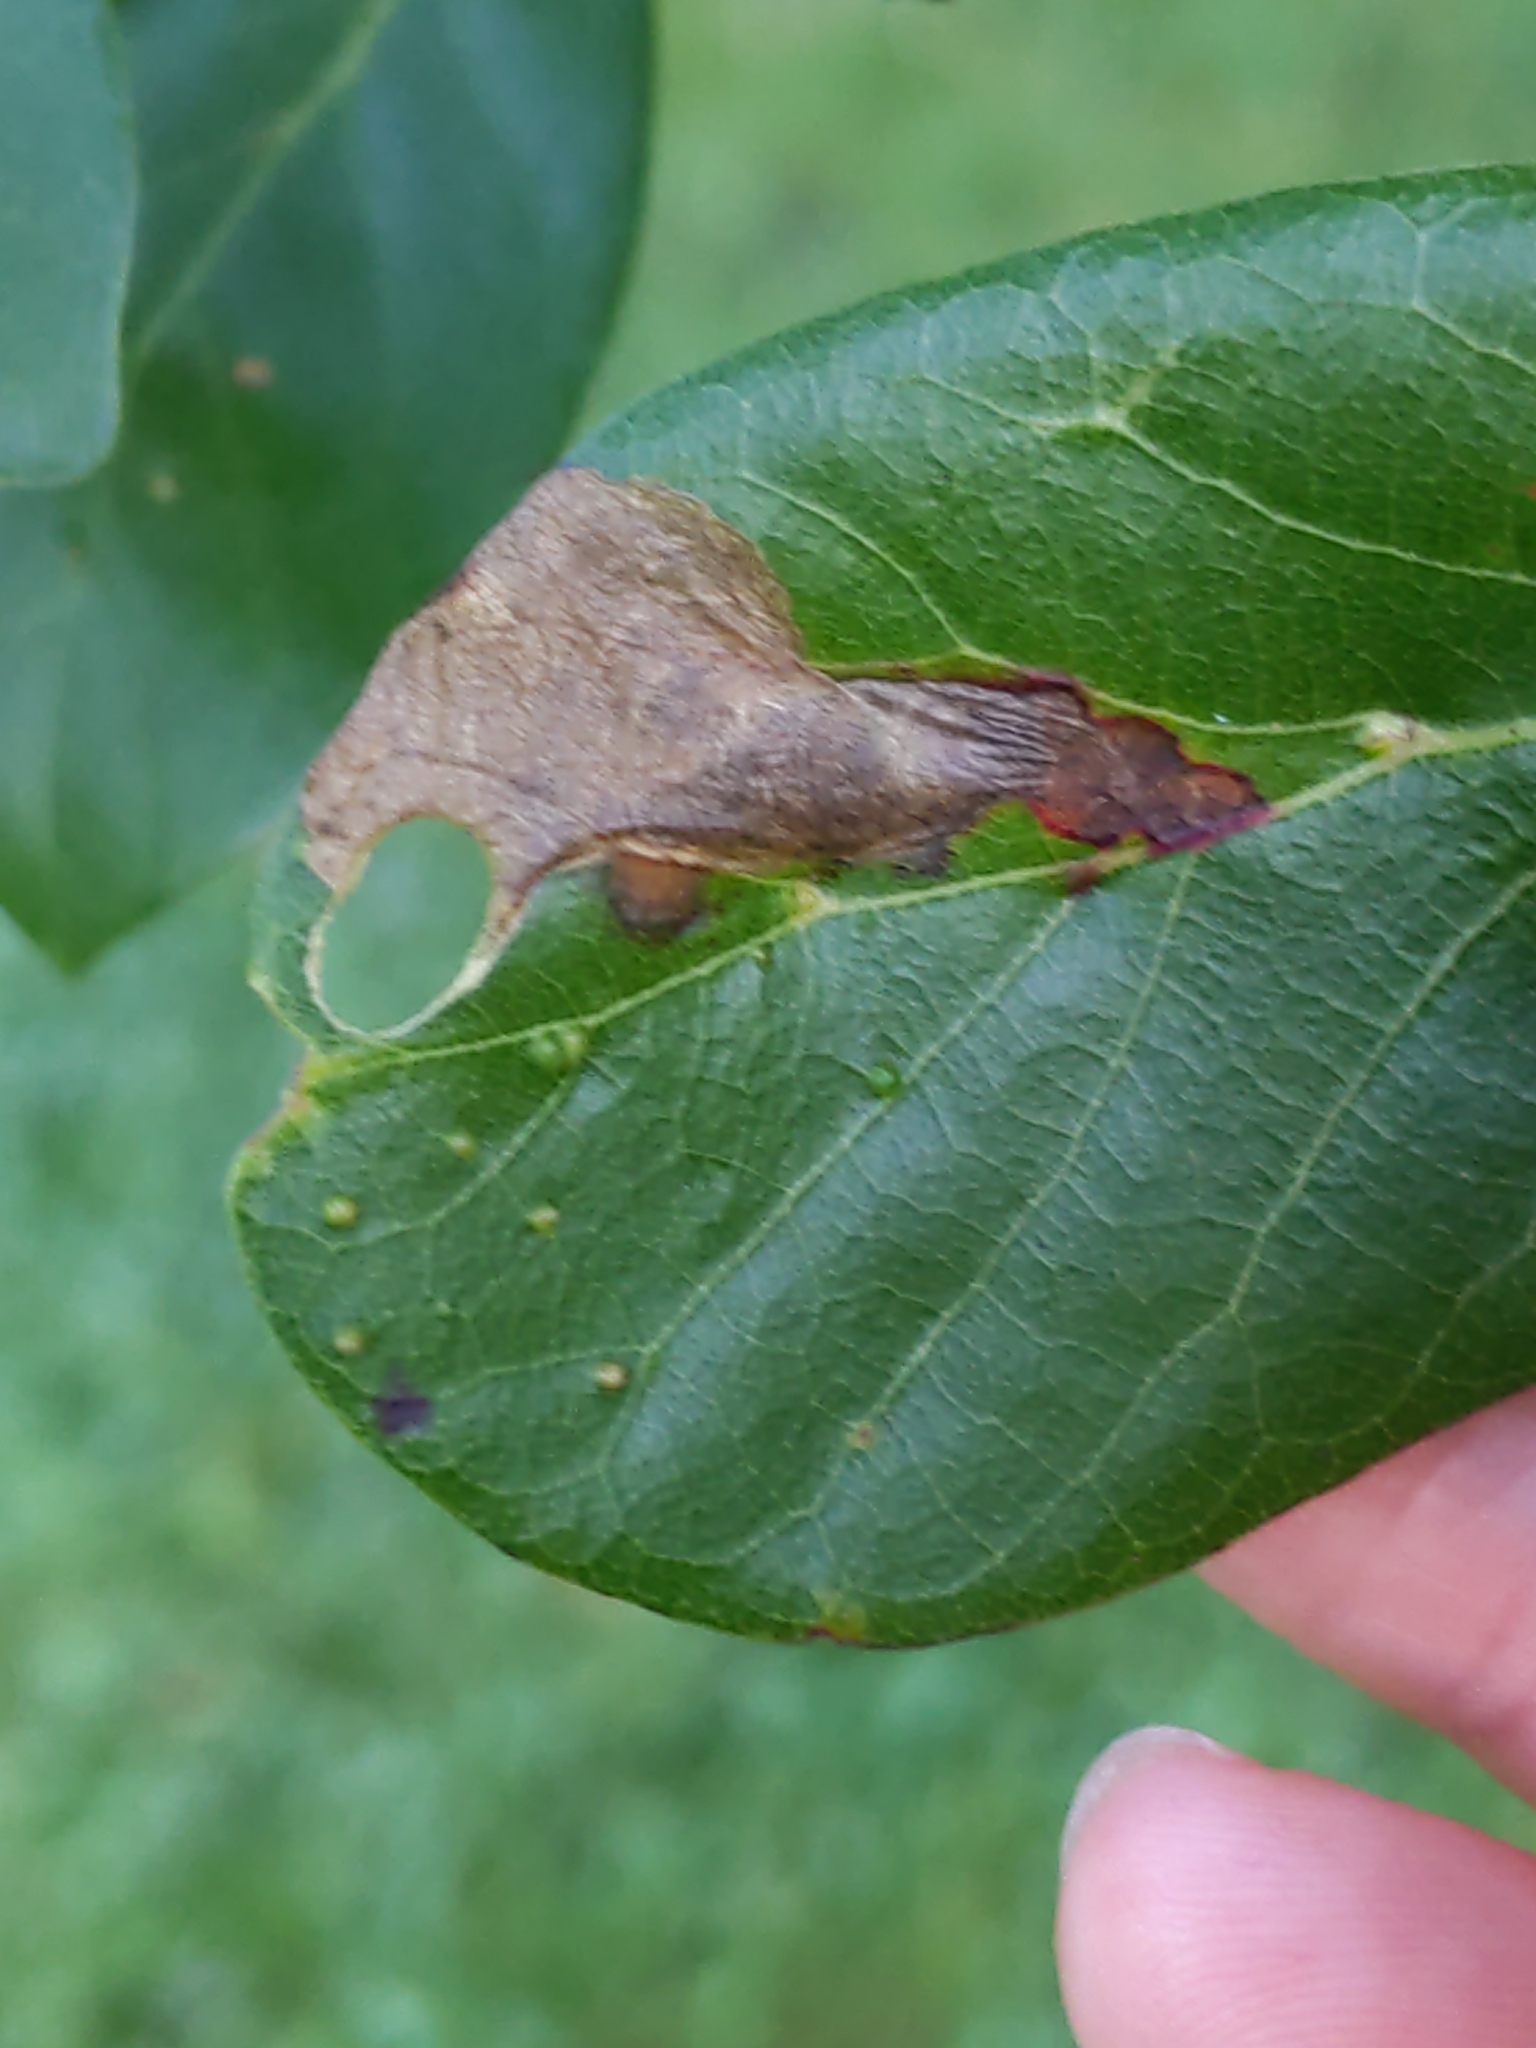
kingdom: Animalia
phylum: Arthropoda
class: Insecta
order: Lepidoptera
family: Heliozelidae
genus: Antispila
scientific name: Antispila nyssaefoliella
